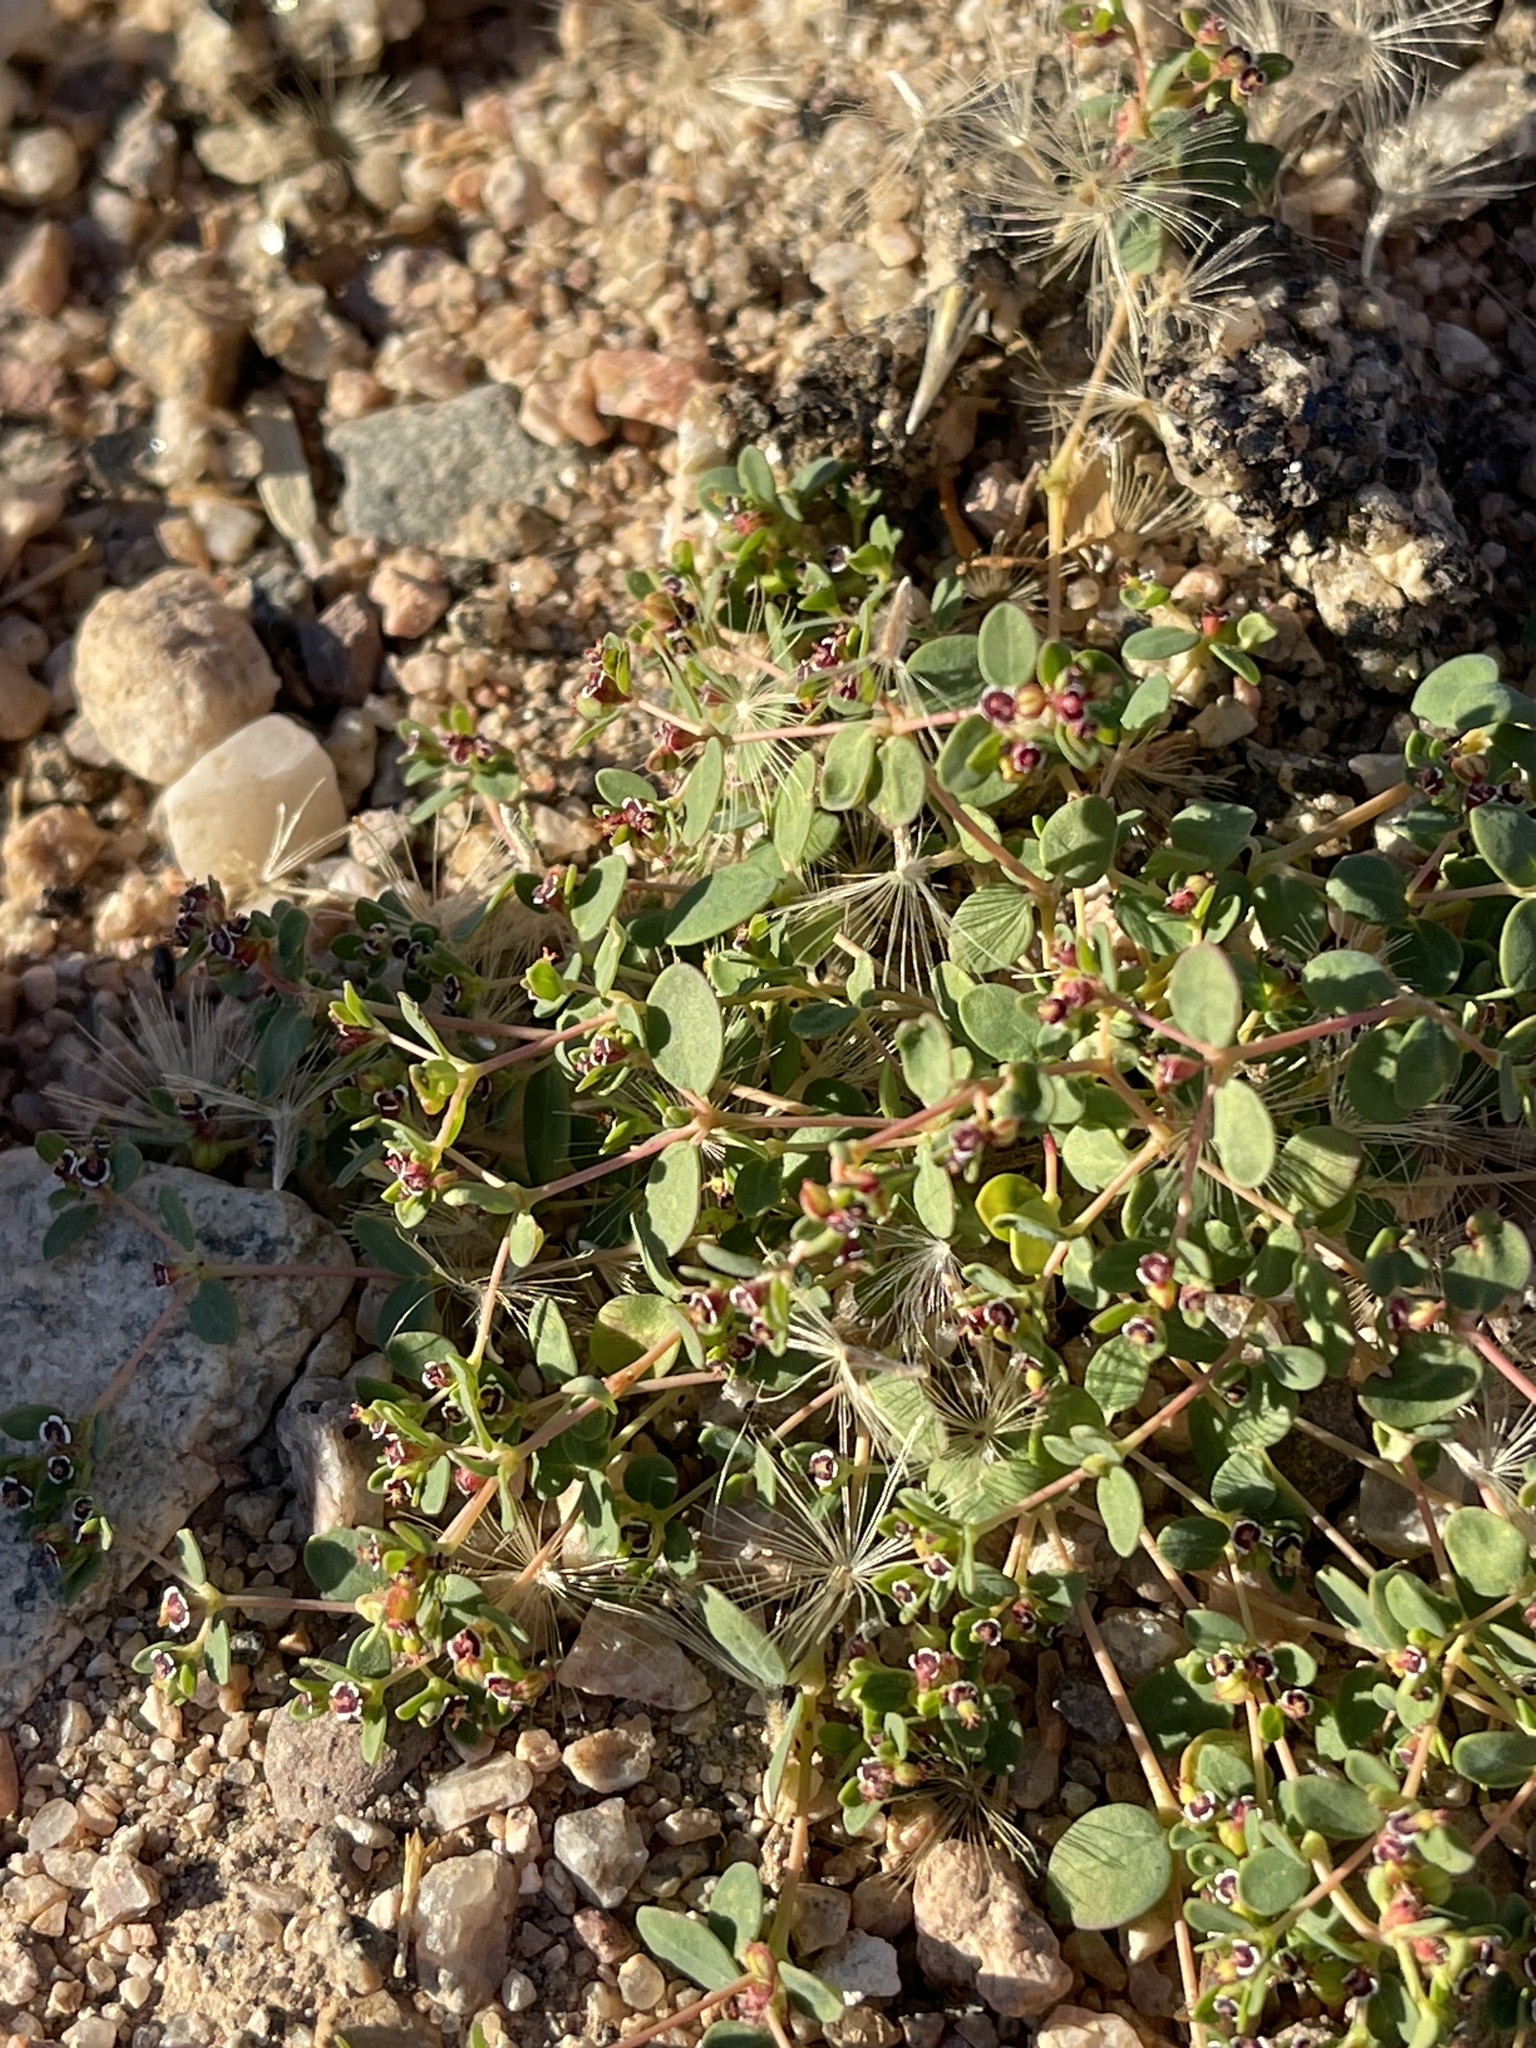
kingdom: Plantae
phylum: Tracheophyta
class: Magnoliopsida
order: Malpighiales
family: Euphorbiaceae
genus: Euphorbia
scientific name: Euphorbia polycarpa
